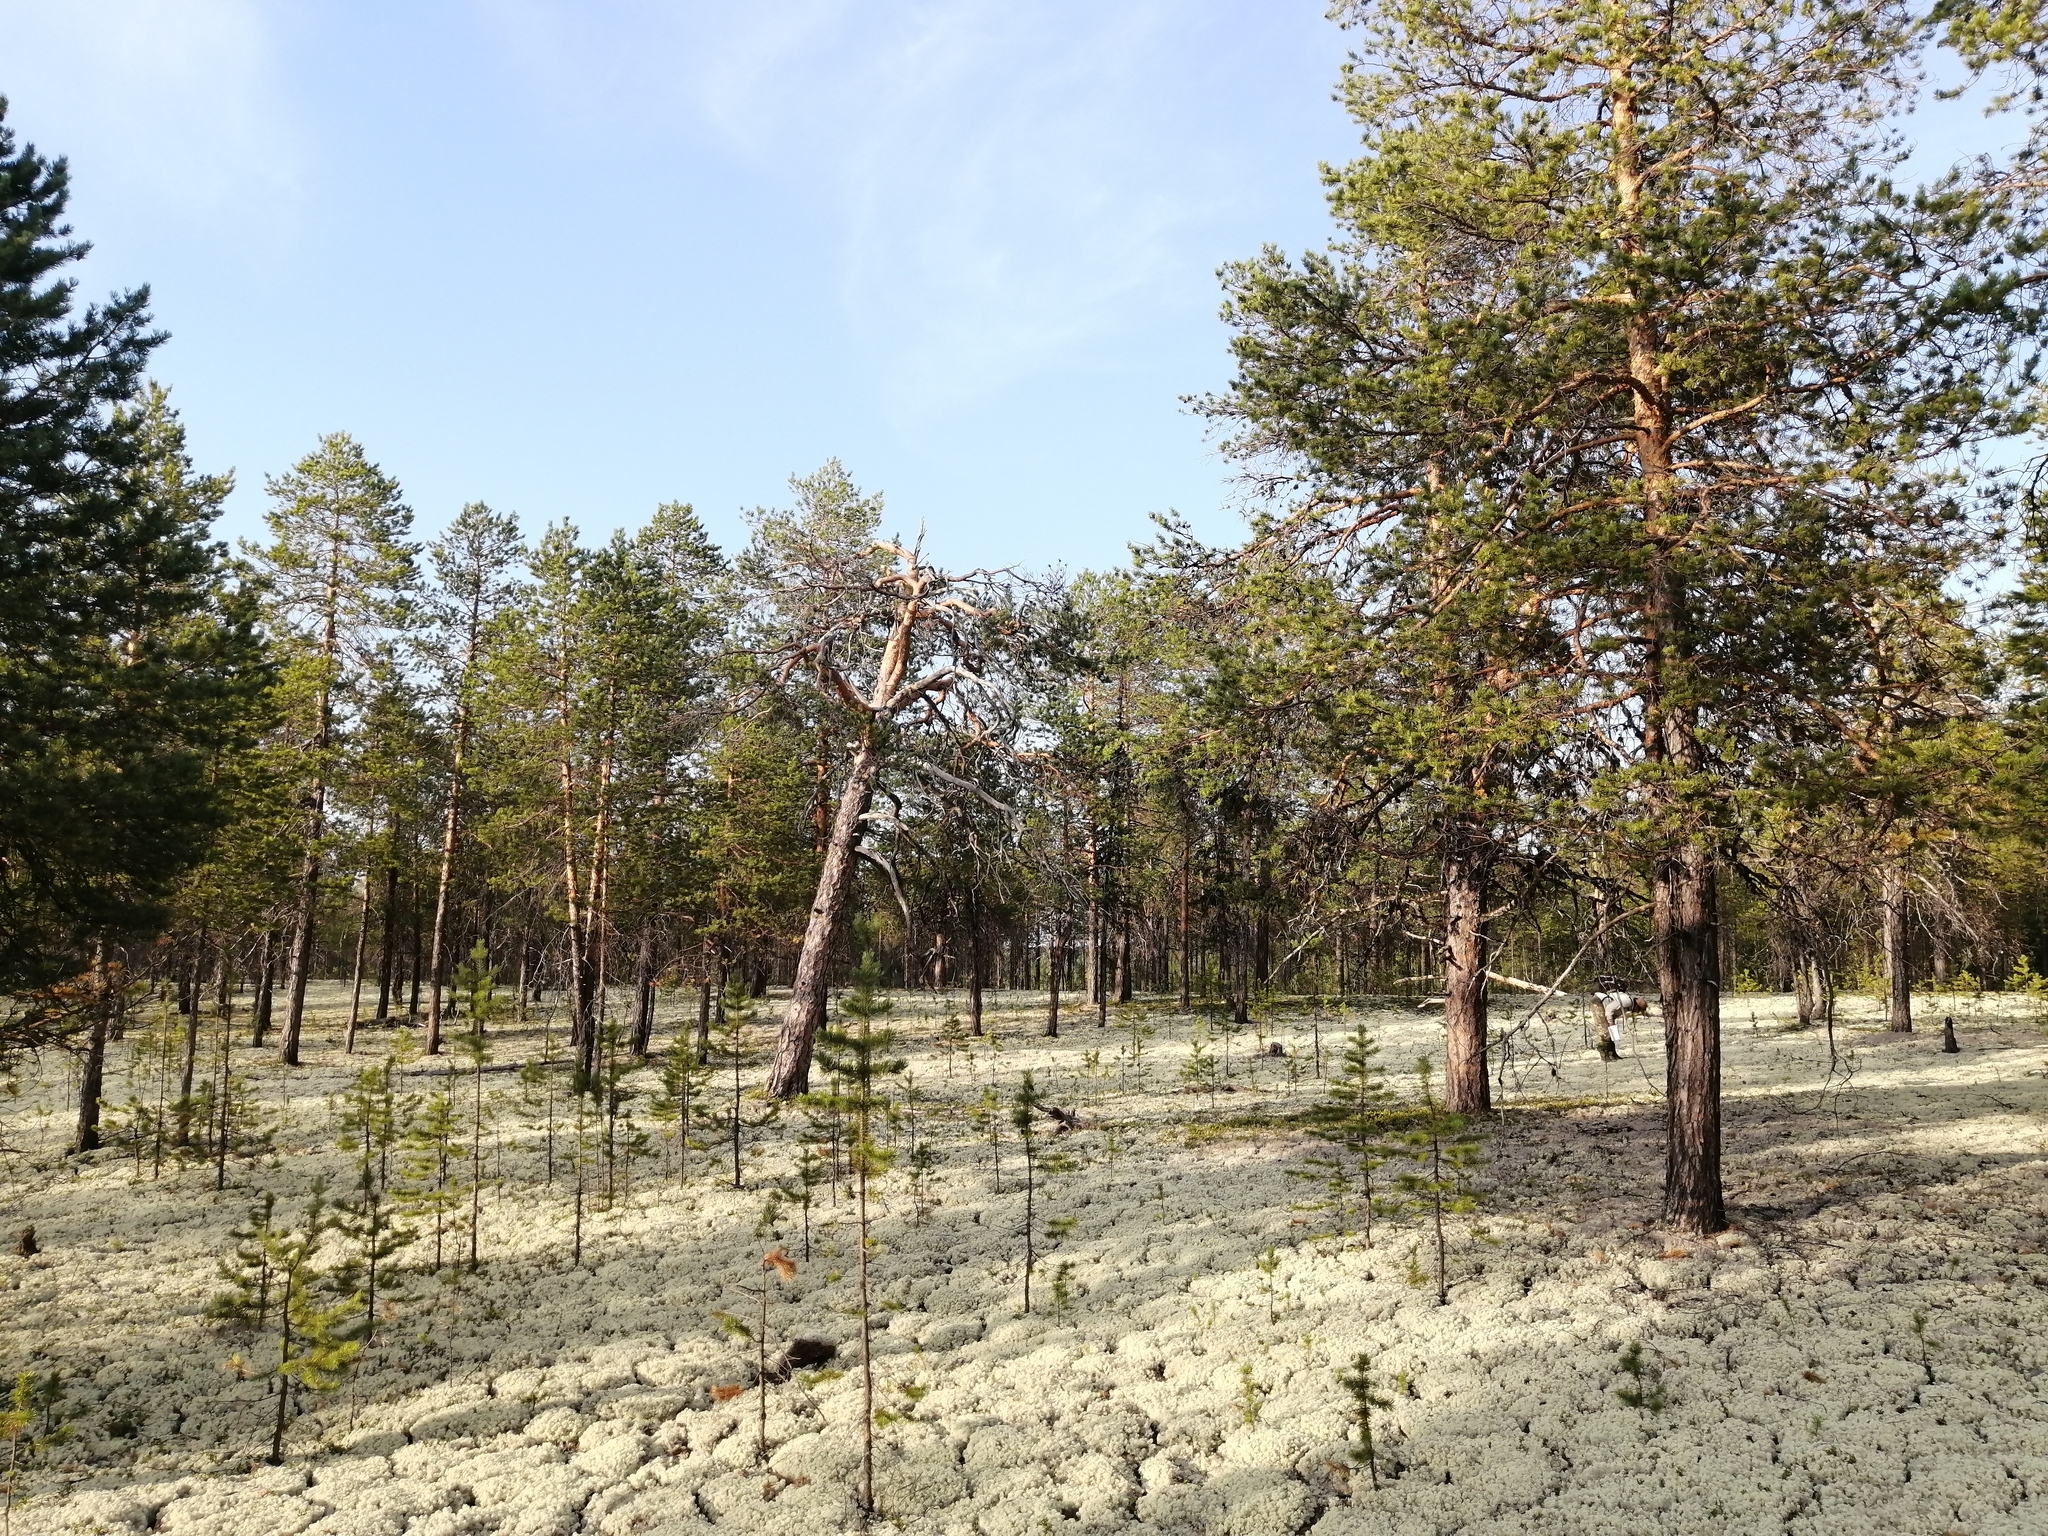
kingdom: Plantae
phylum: Tracheophyta
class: Pinopsida
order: Pinales
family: Pinaceae
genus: Pinus
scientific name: Pinus sylvestris
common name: Scots pine
